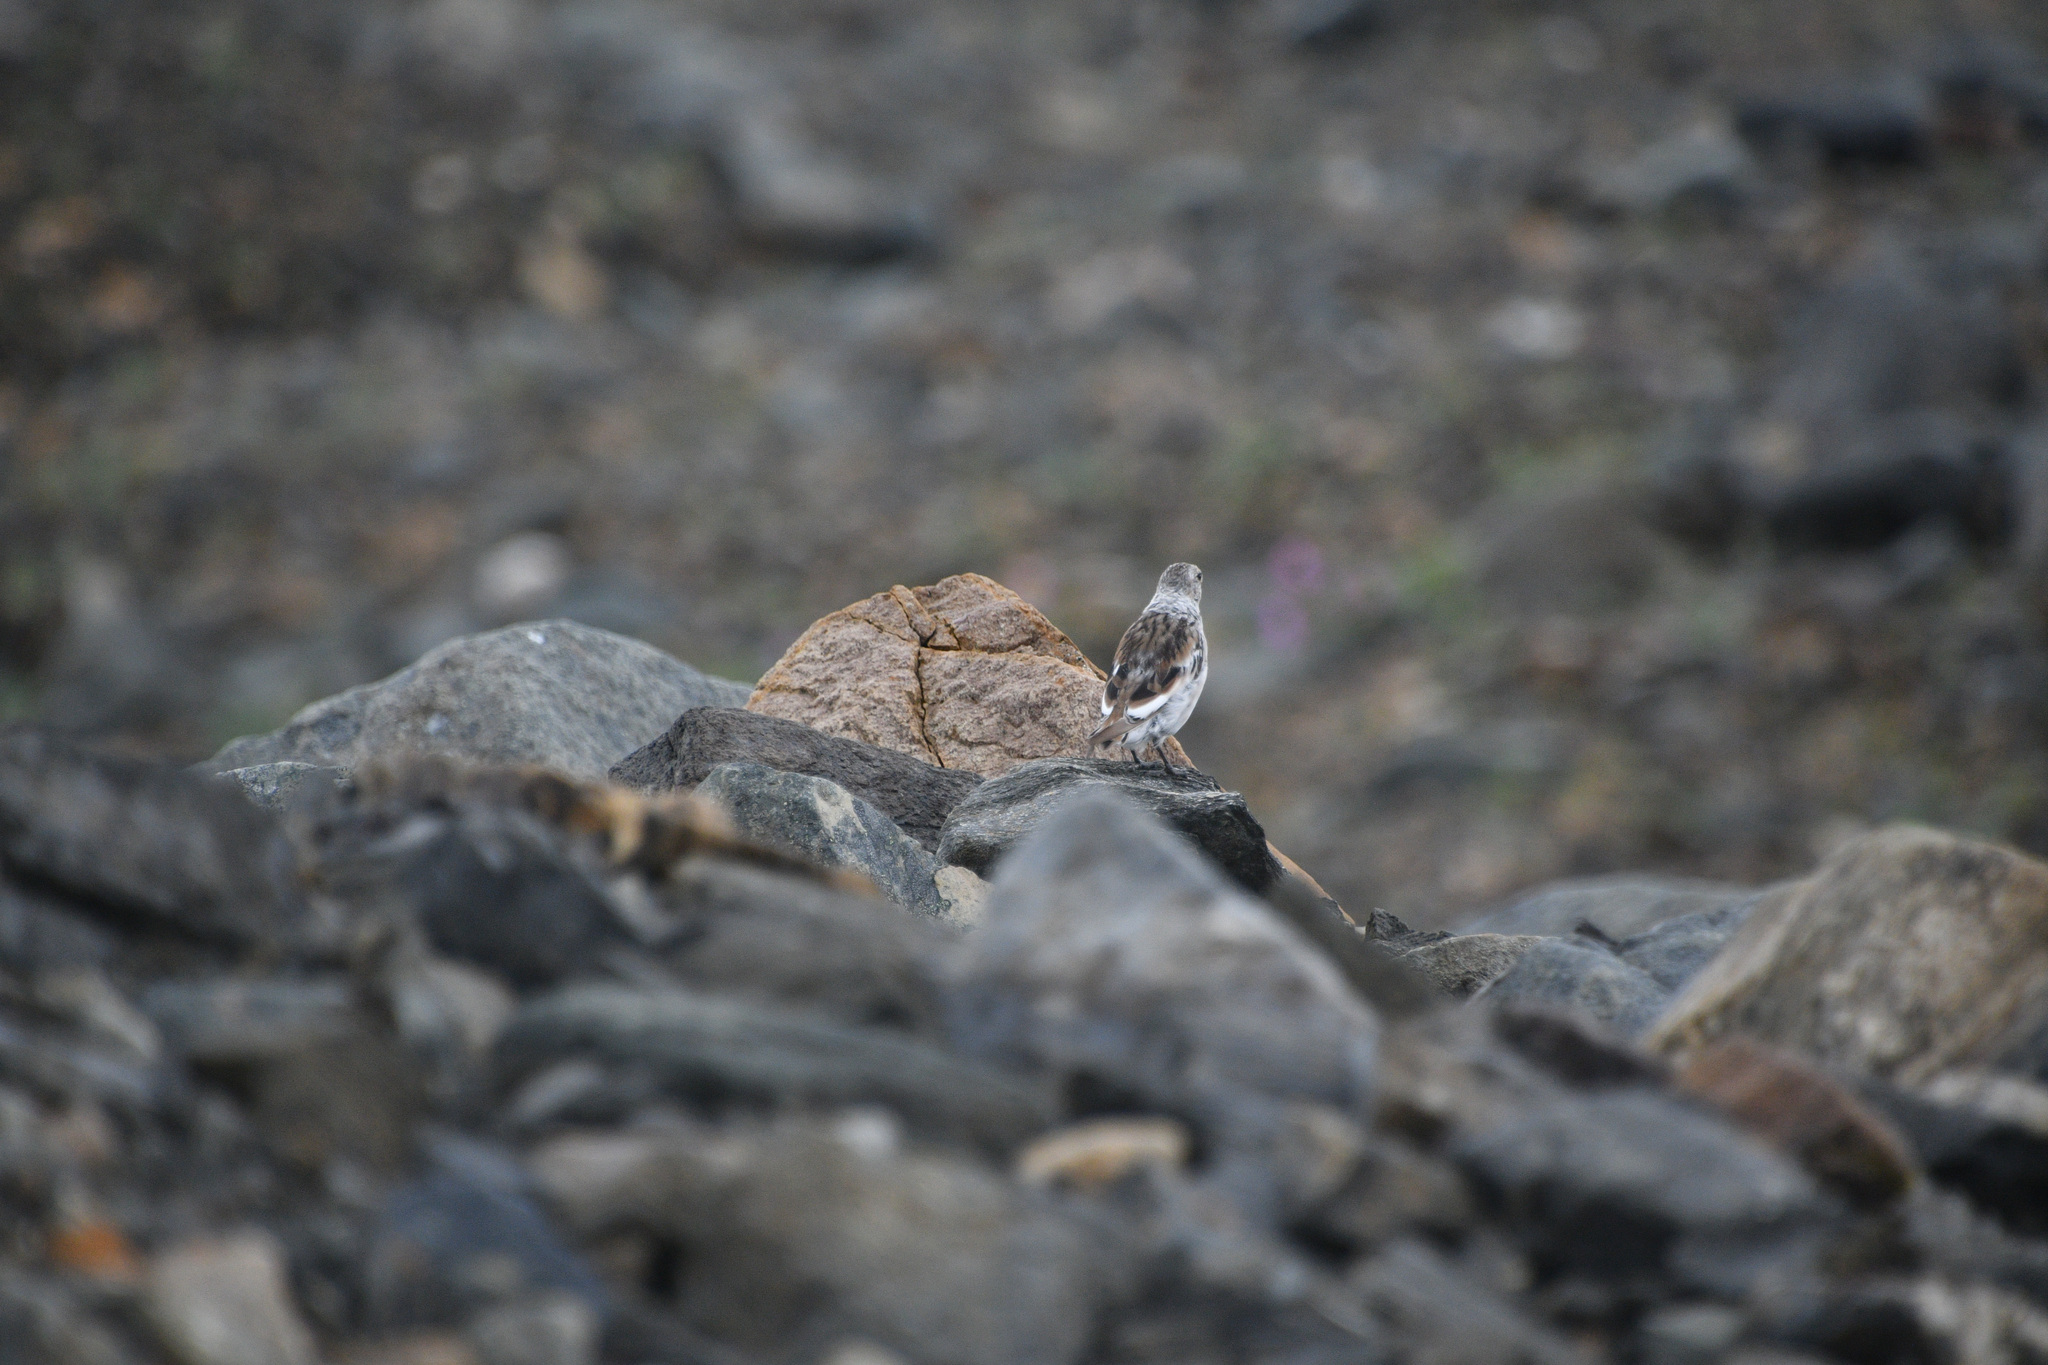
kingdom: Animalia
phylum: Chordata
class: Aves
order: Passeriformes
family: Calcariidae
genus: Plectrophenax
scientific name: Plectrophenax nivalis
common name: Snow bunting
